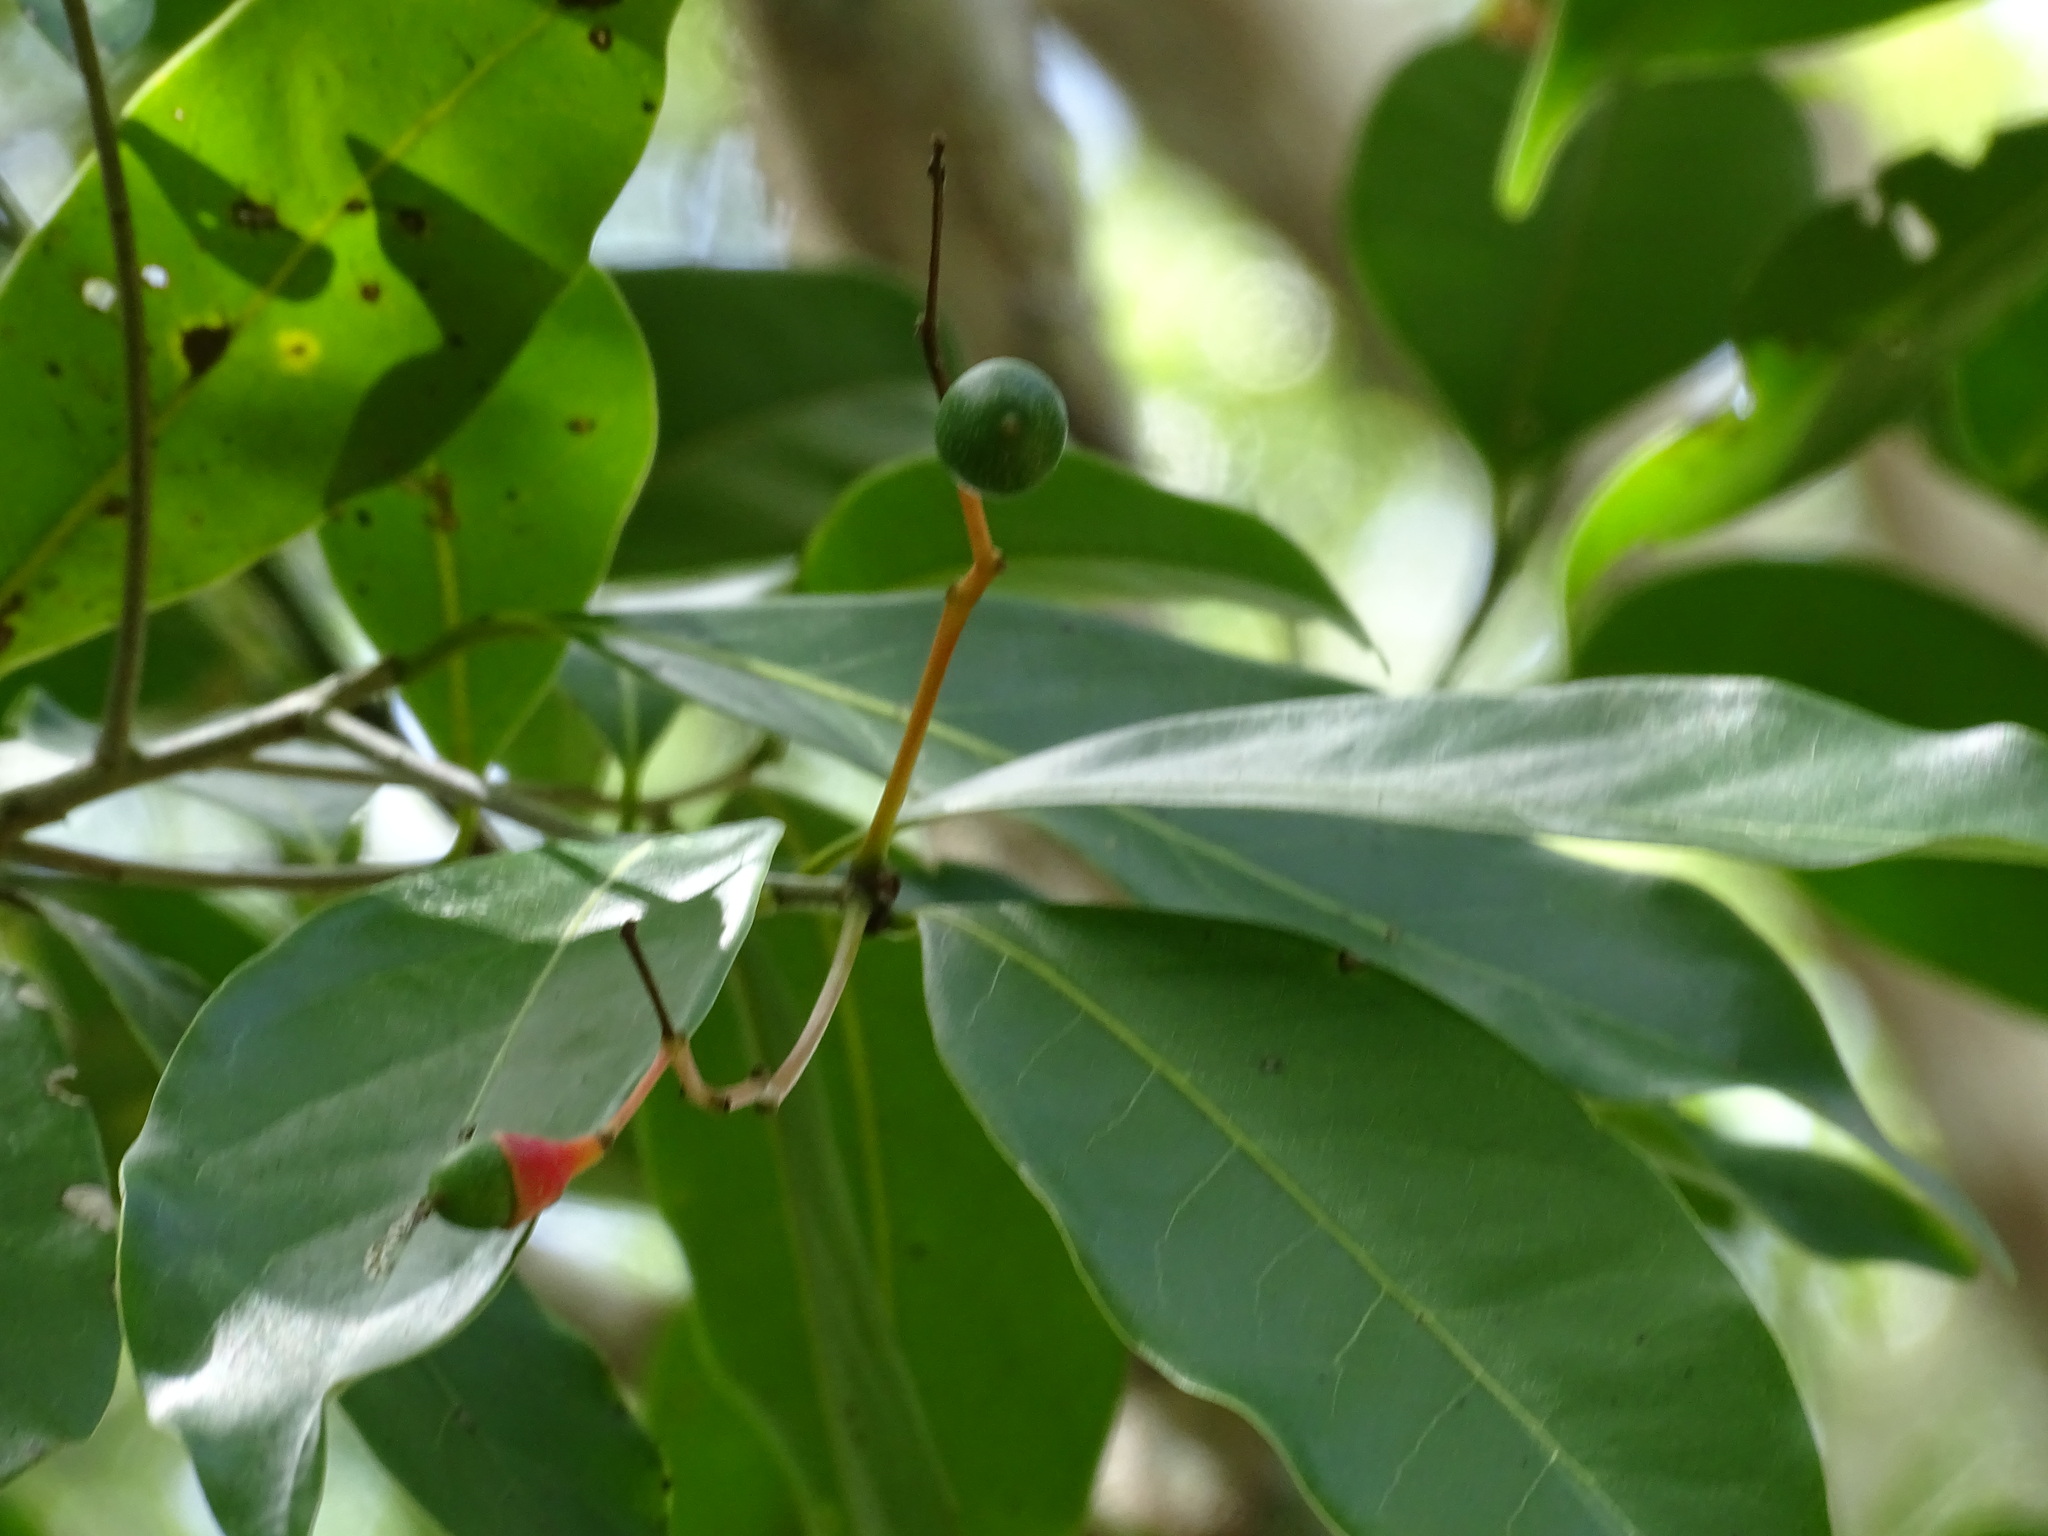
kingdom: Plantae
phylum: Tracheophyta
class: Magnoliopsida
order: Laurales
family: Lauraceae
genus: Damburneya
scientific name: Damburneya salicifolia
